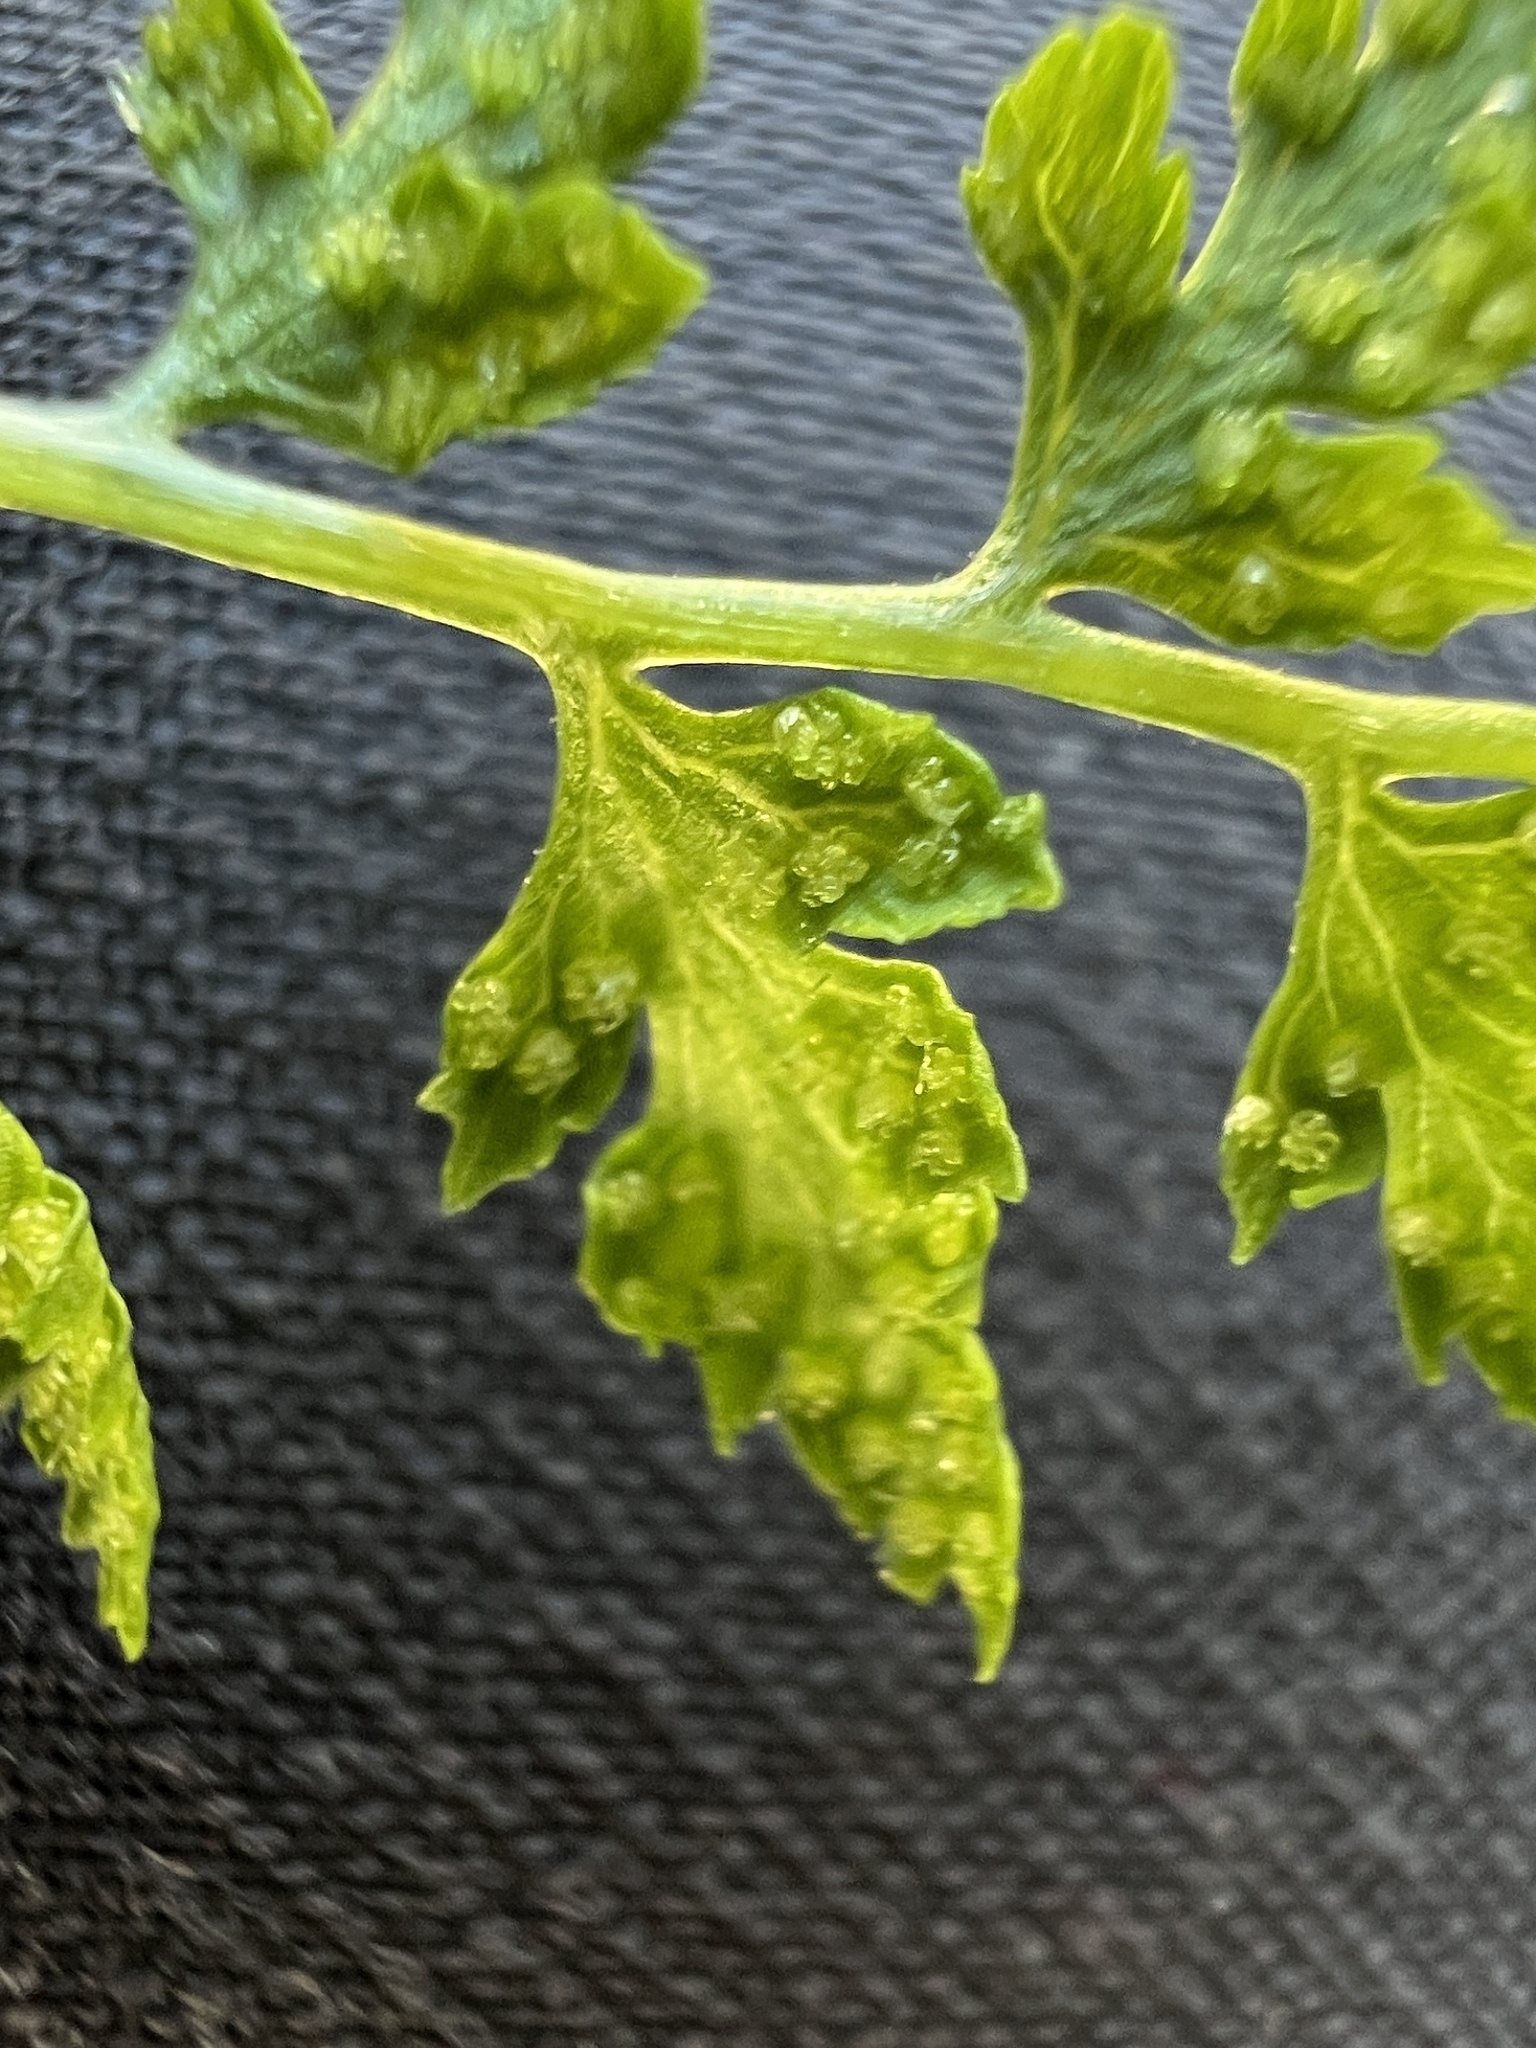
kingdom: Plantae
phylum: Tracheophyta
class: Polypodiopsida
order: Polypodiales
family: Cystopteridaceae
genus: Cystopteris
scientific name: Cystopteris fragilis
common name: Brittle bladder fern
